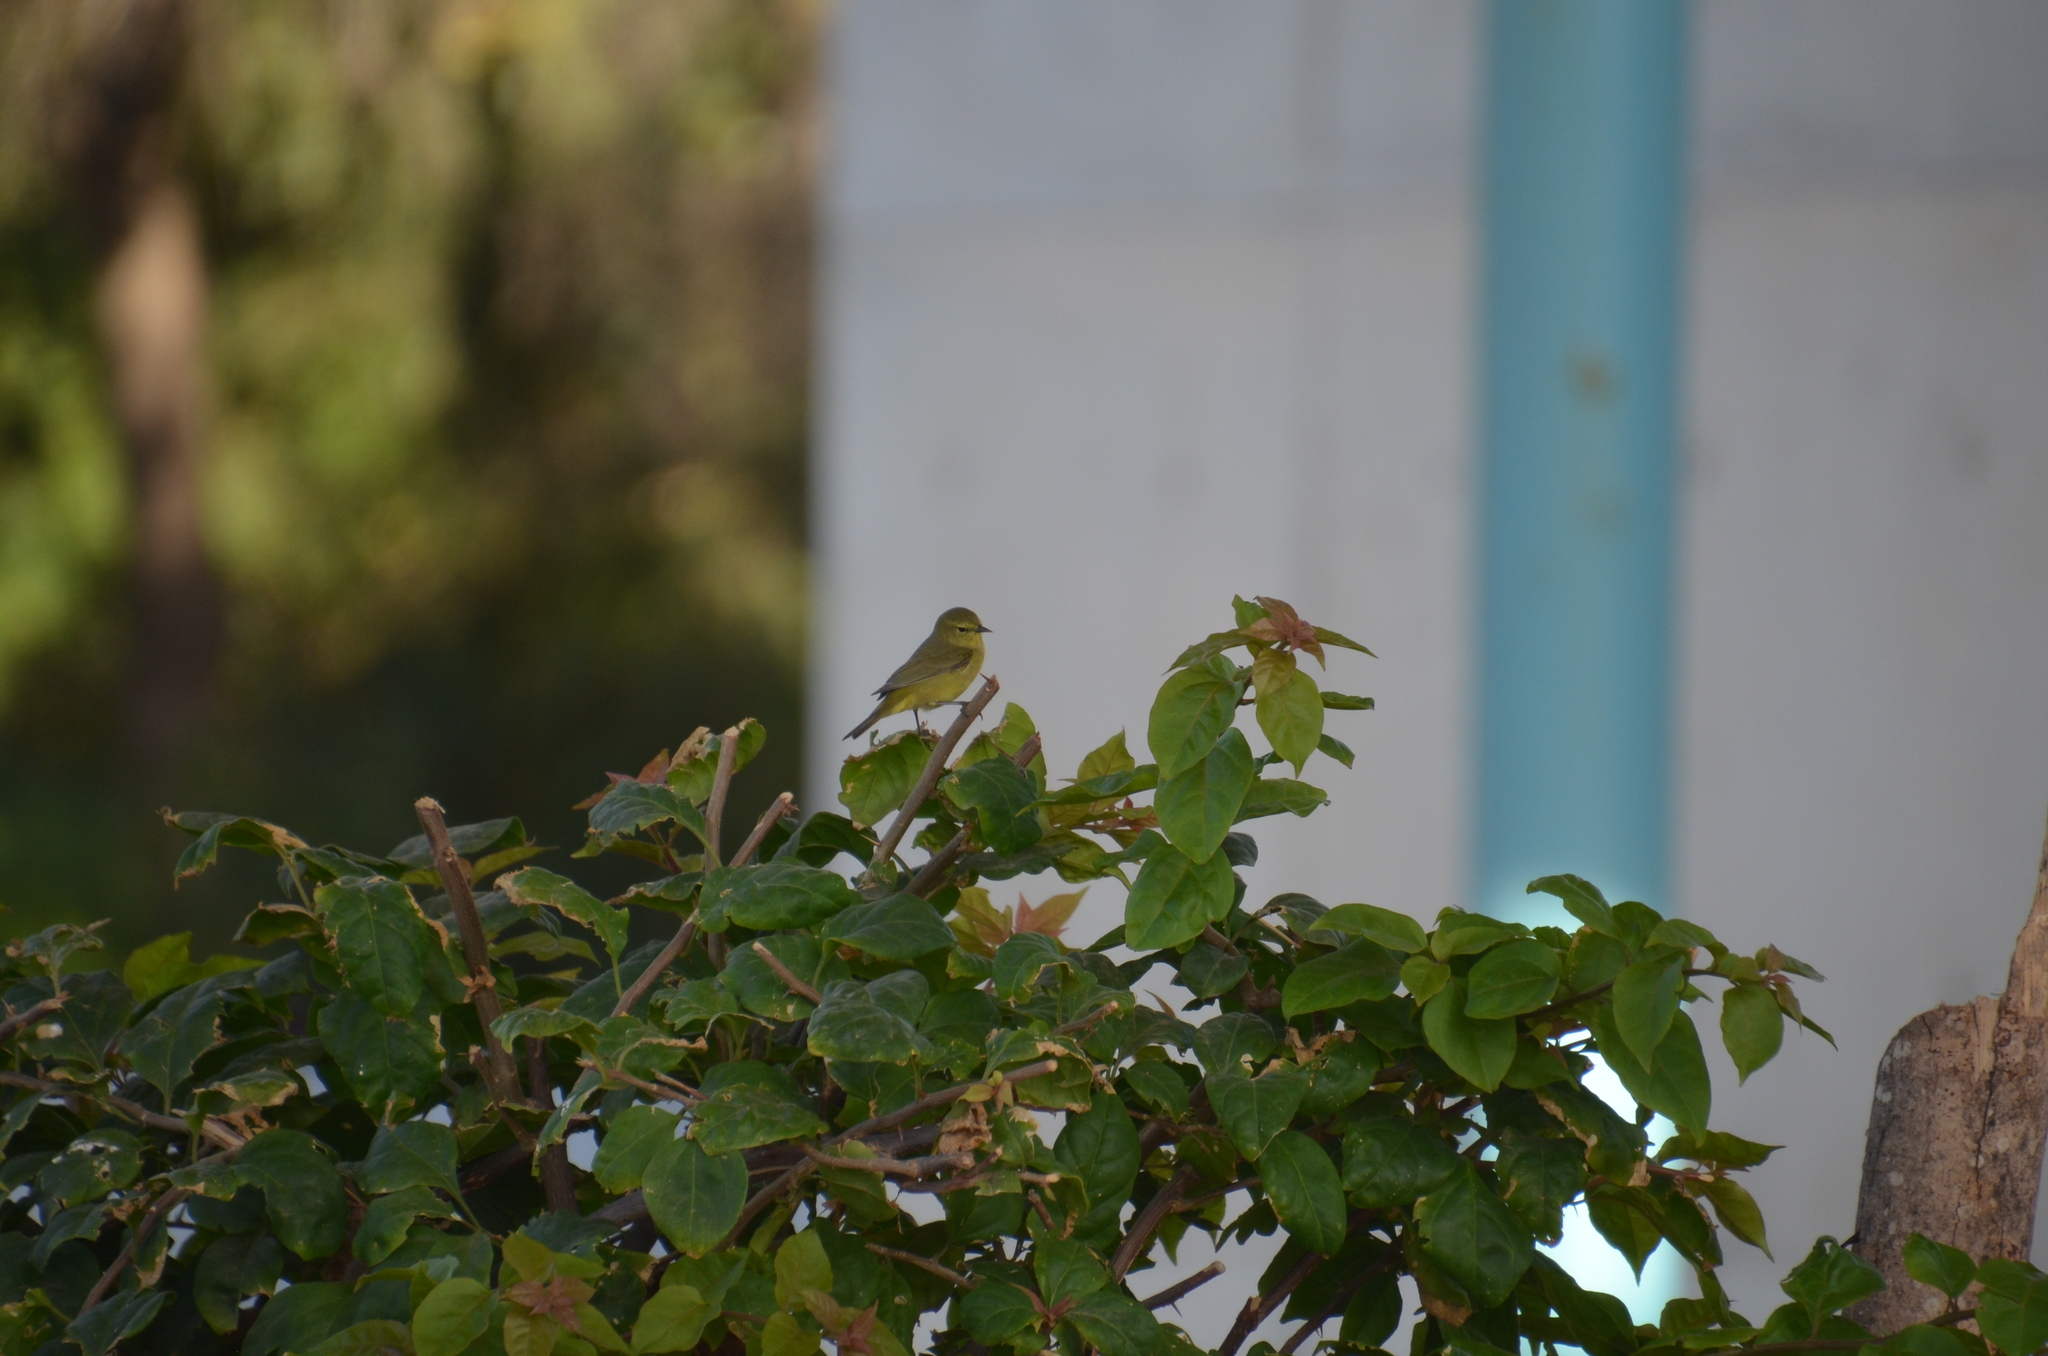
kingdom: Animalia
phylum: Chordata
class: Aves
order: Passeriformes
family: Parulidae
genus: Leiothlypis
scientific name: Leiothlypis celata
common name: Orange-crowned warbler
